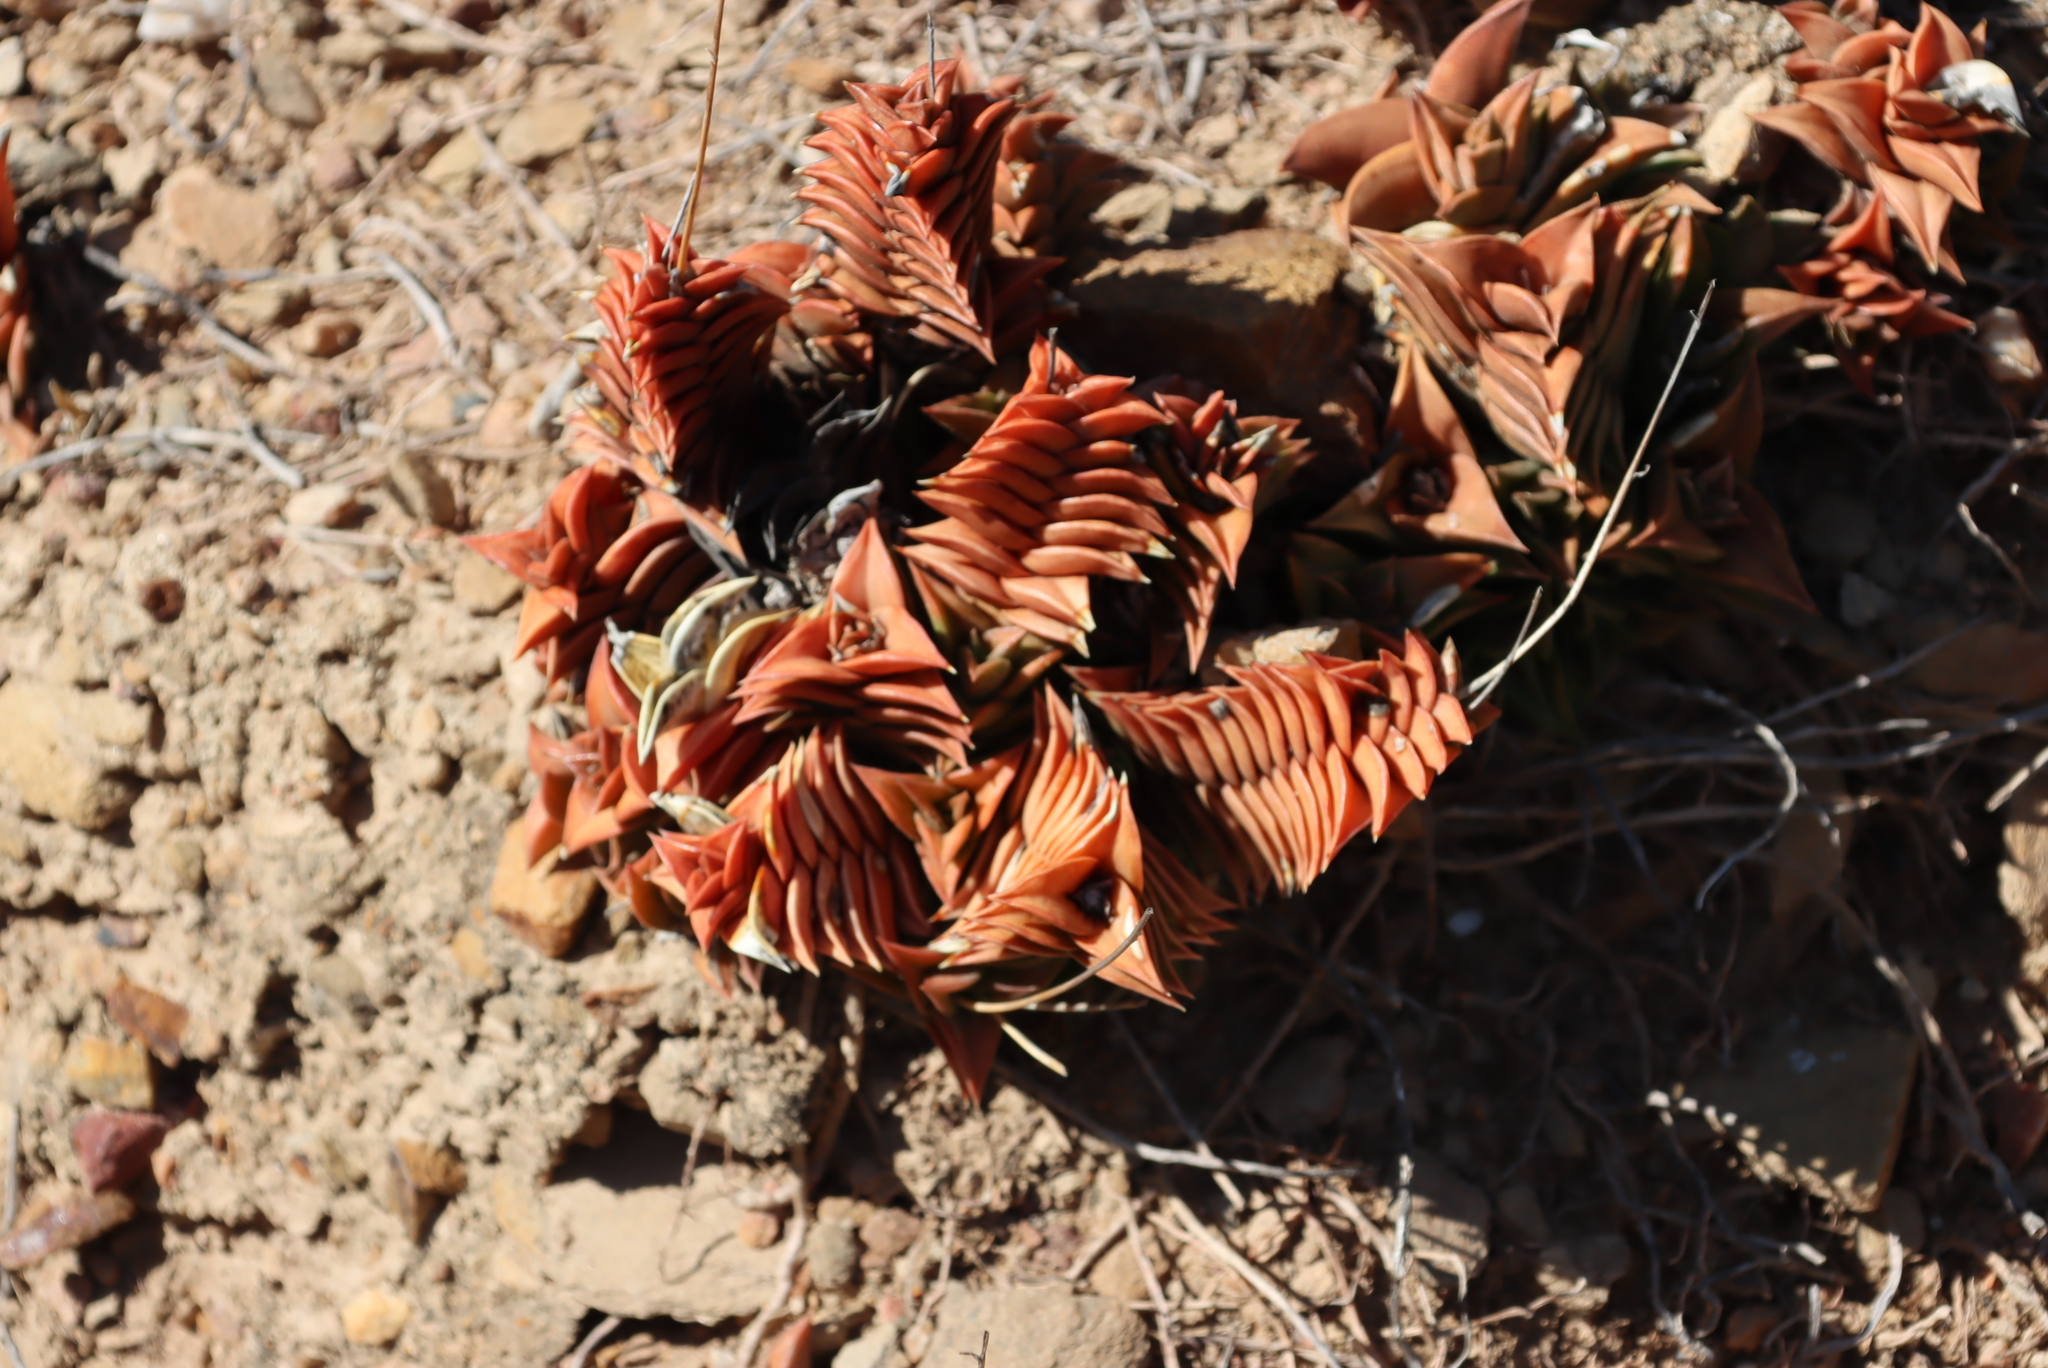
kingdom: Plantae
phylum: Tracheophyta
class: Liliopsida
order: Asparagales
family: Asphodelaceae
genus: Haworthiopsis
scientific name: Haworthiopsis viscosa
